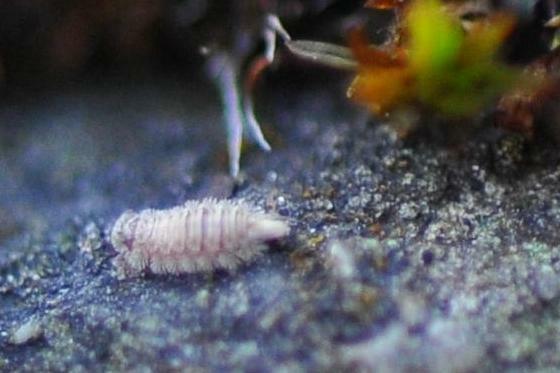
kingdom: Animalia
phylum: Arthropoda
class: Diplopoda
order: Polyxenida
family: Polyxenidae
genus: Polyxenus
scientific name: Polyxenus lagurus
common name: Bristly millipede
